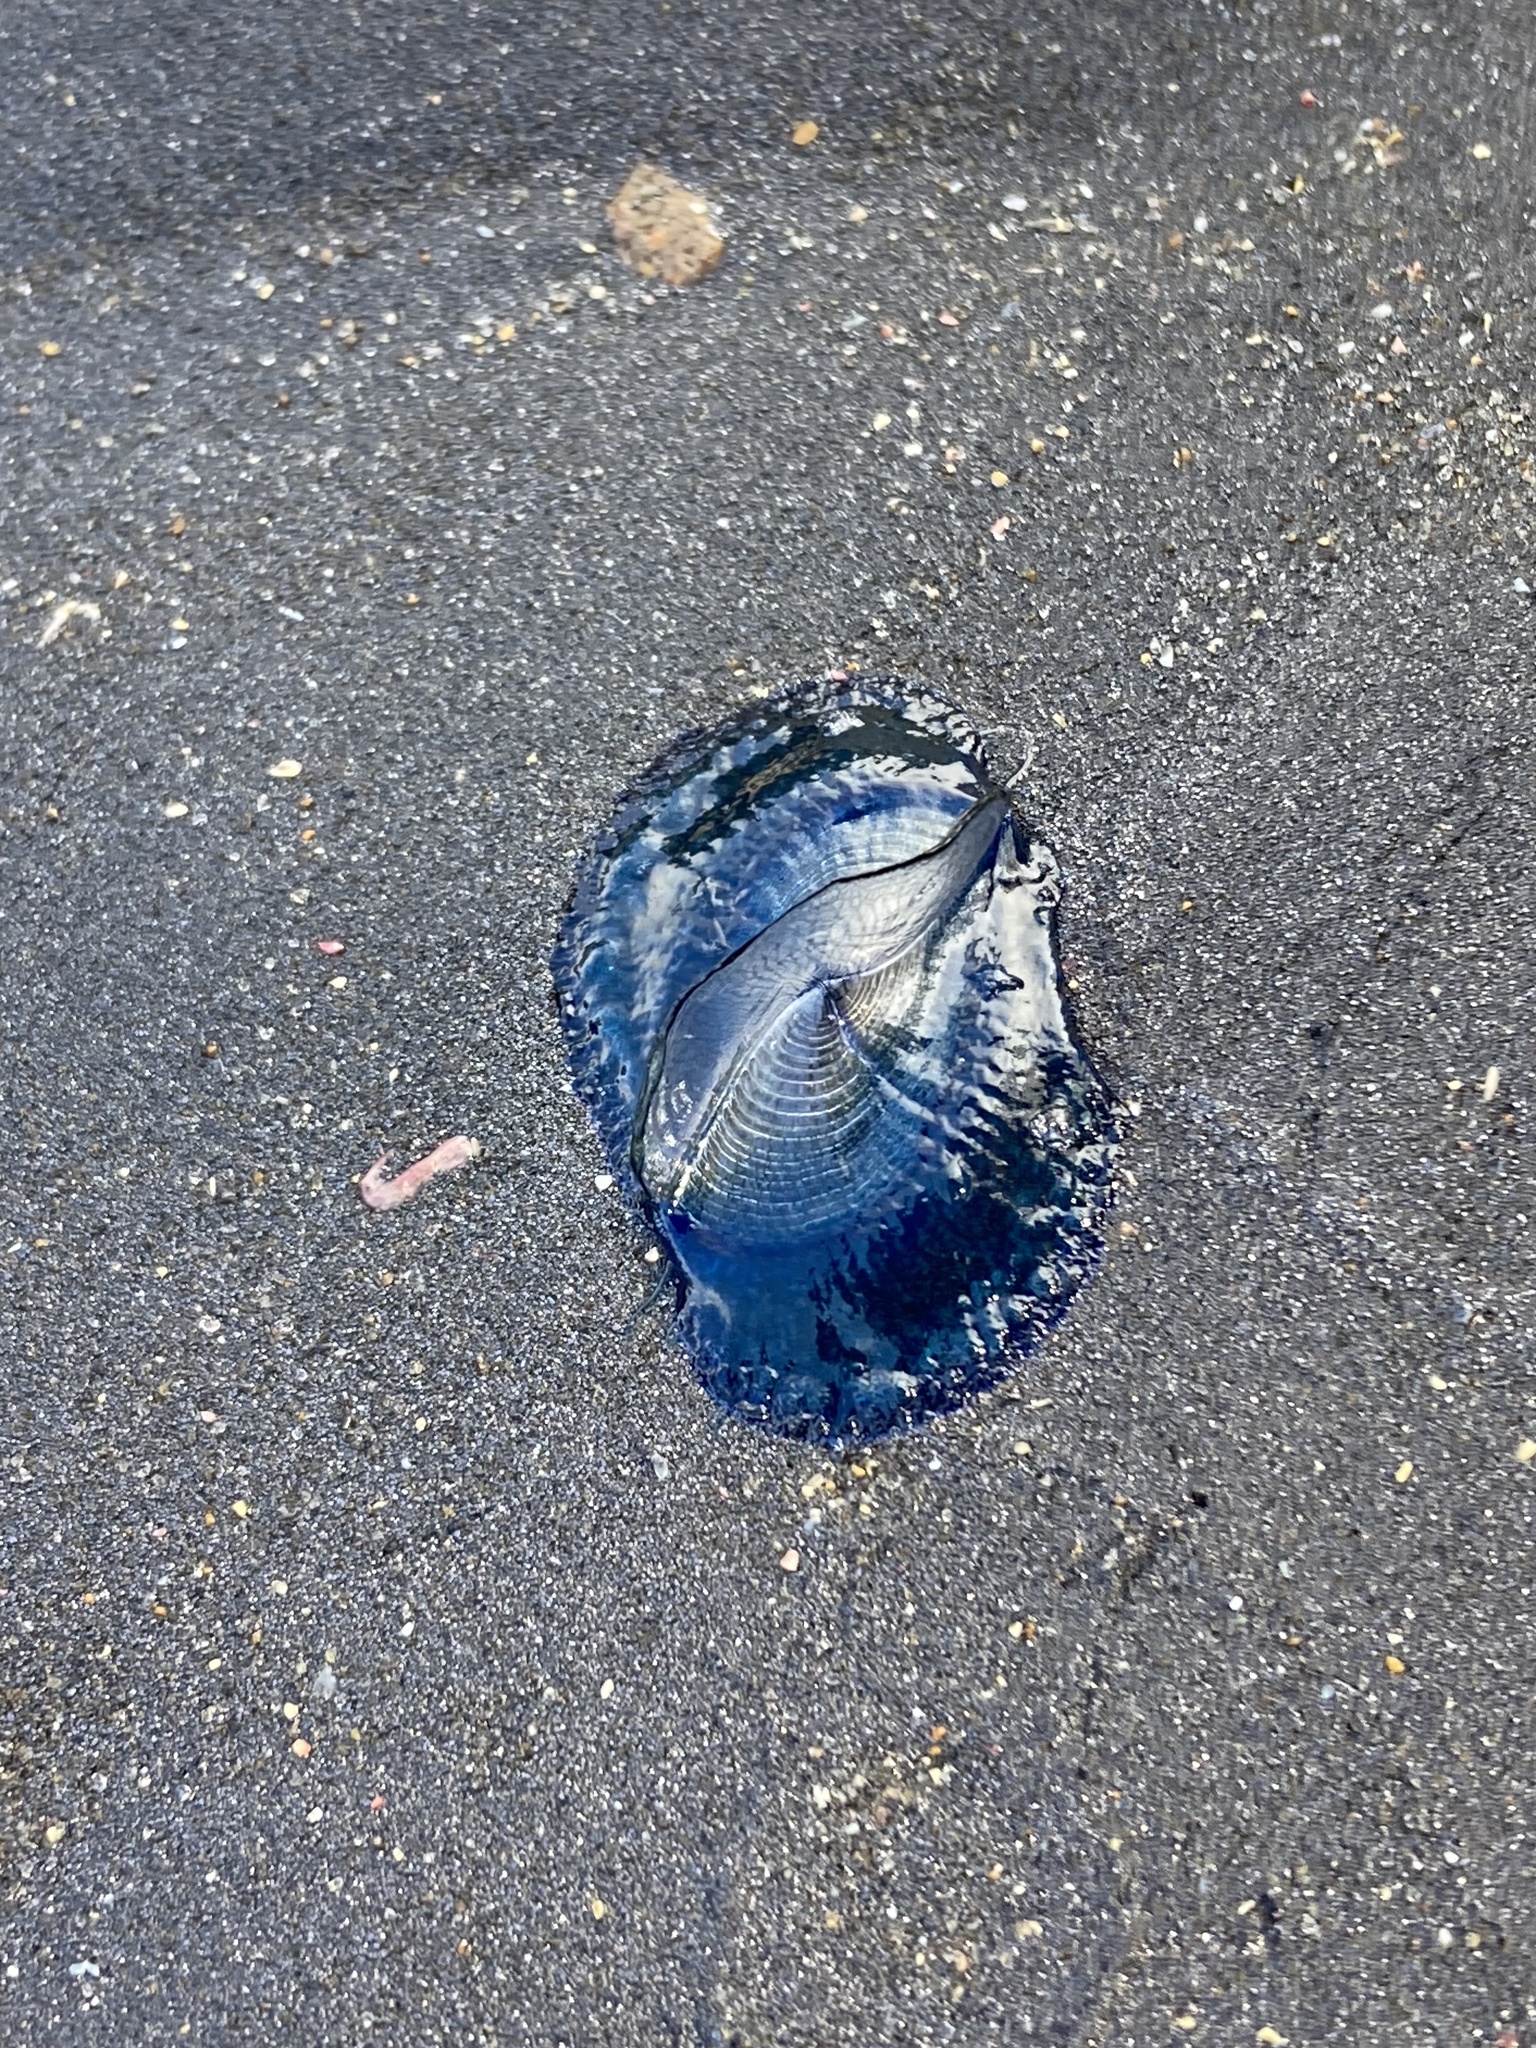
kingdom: Animalia
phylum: Cnidaria
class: Hydrozoa
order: Anthoathecata
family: Porpitidae
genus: Velella
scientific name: Velella velella
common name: By-the-wind-sailor
